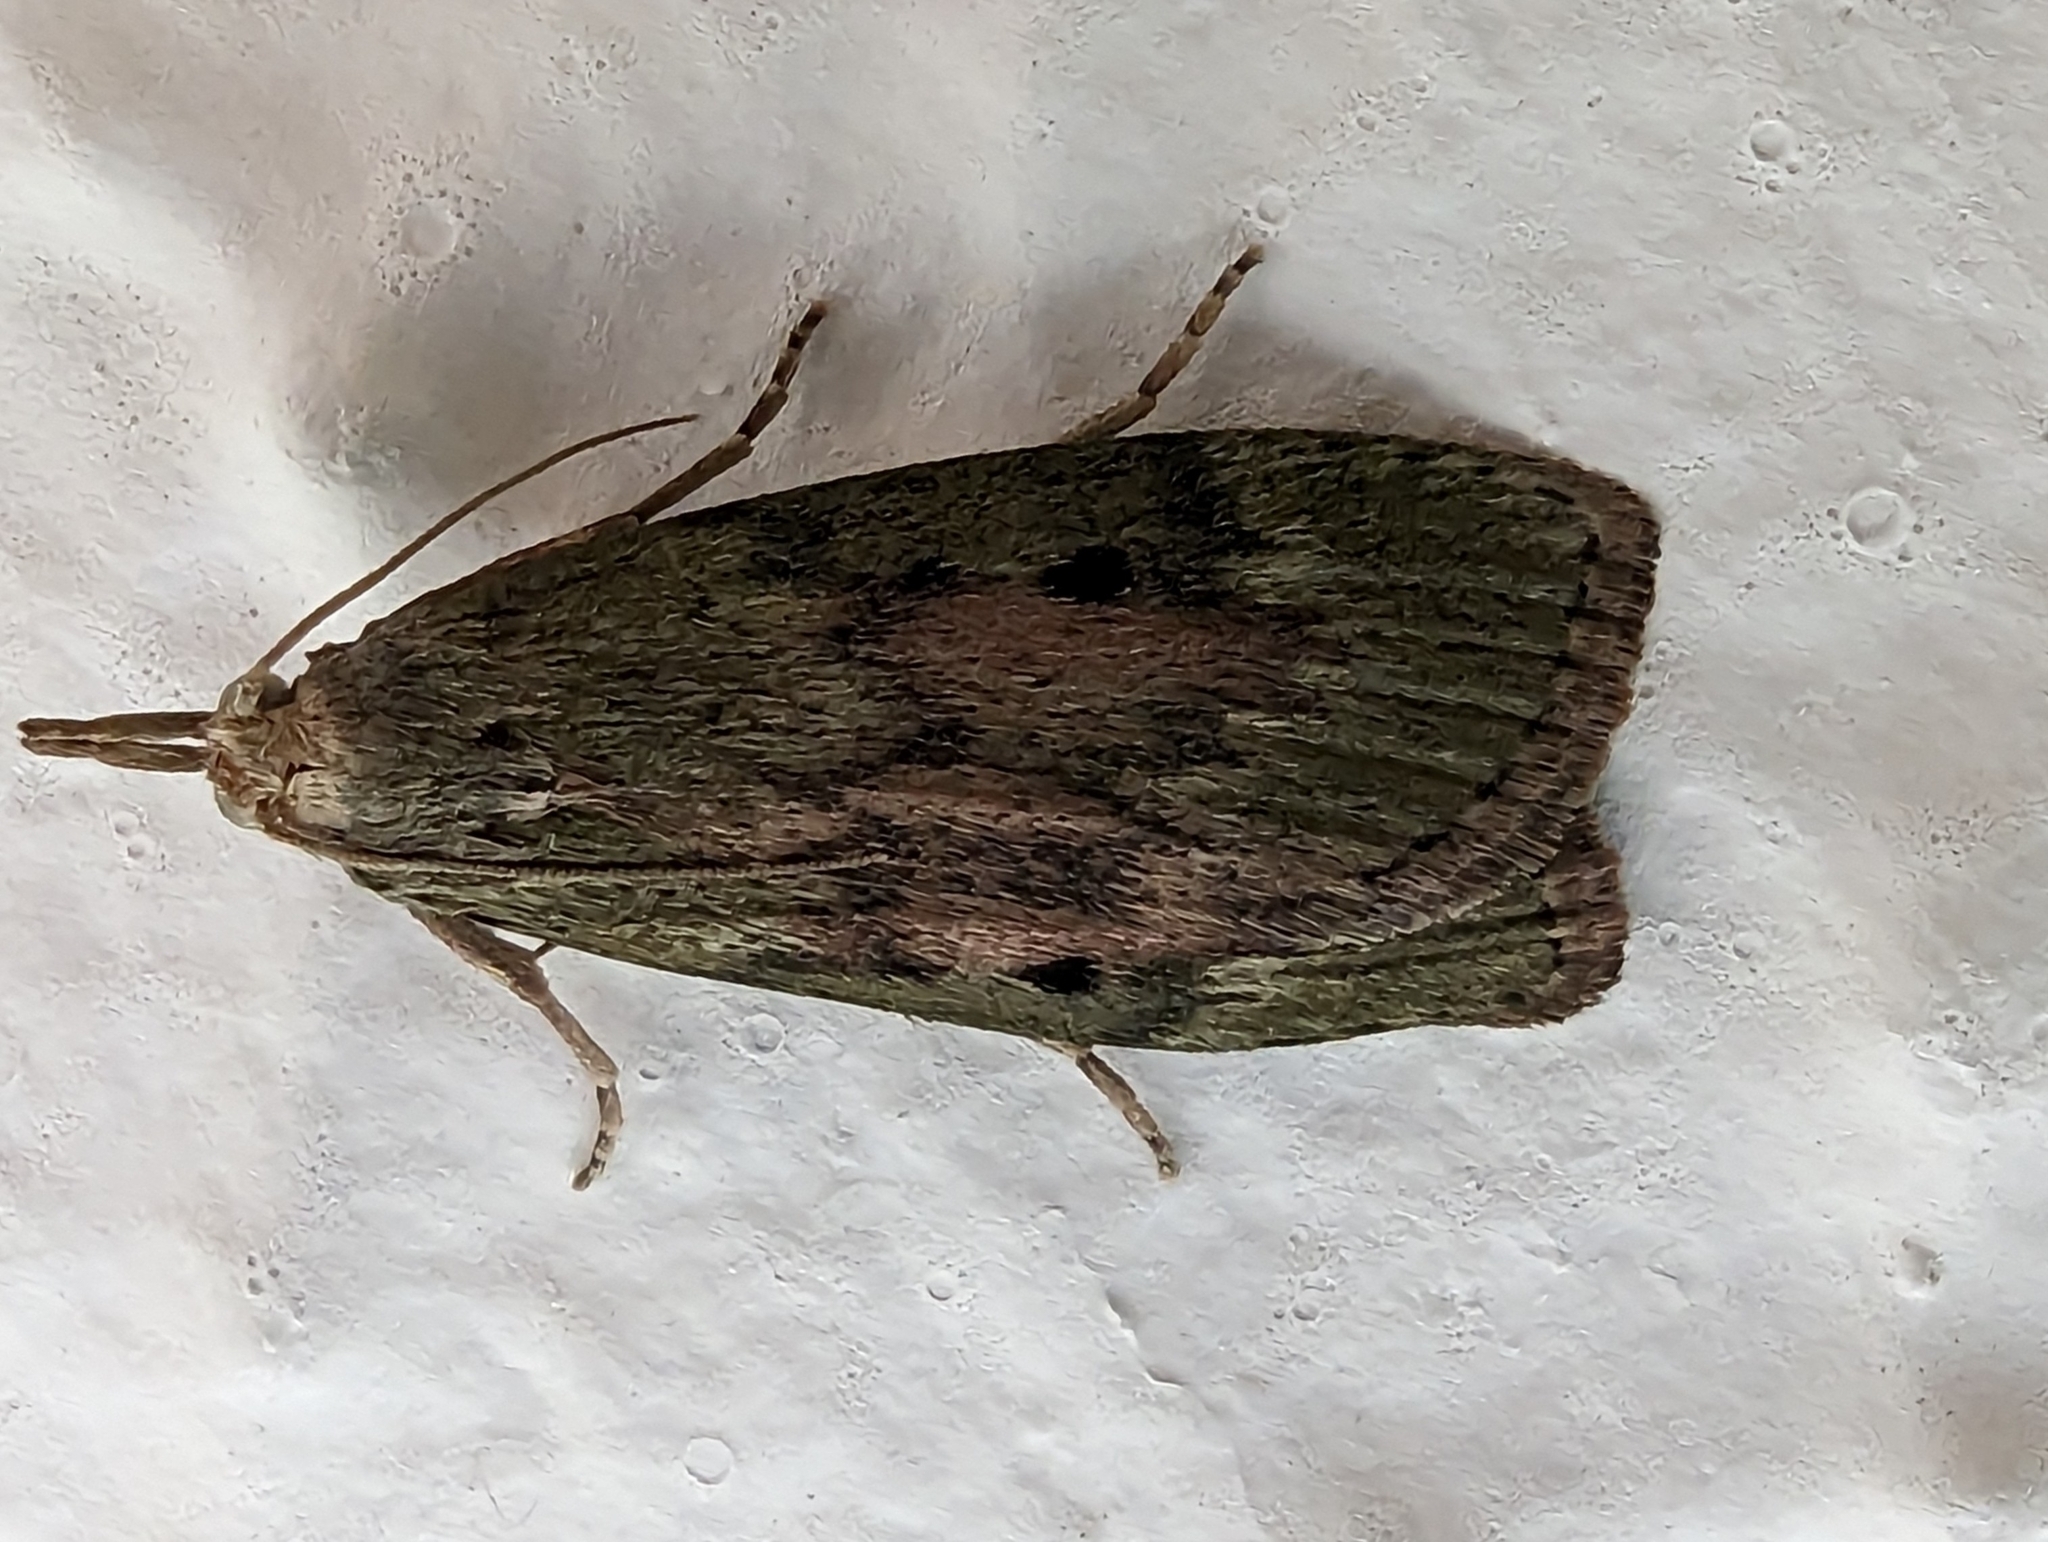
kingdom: Animalia
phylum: Arthropoda
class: Insecta
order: Lepidoptera
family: Pyralidae
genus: Aphomia
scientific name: Aphomia sociella
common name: Bee moth
